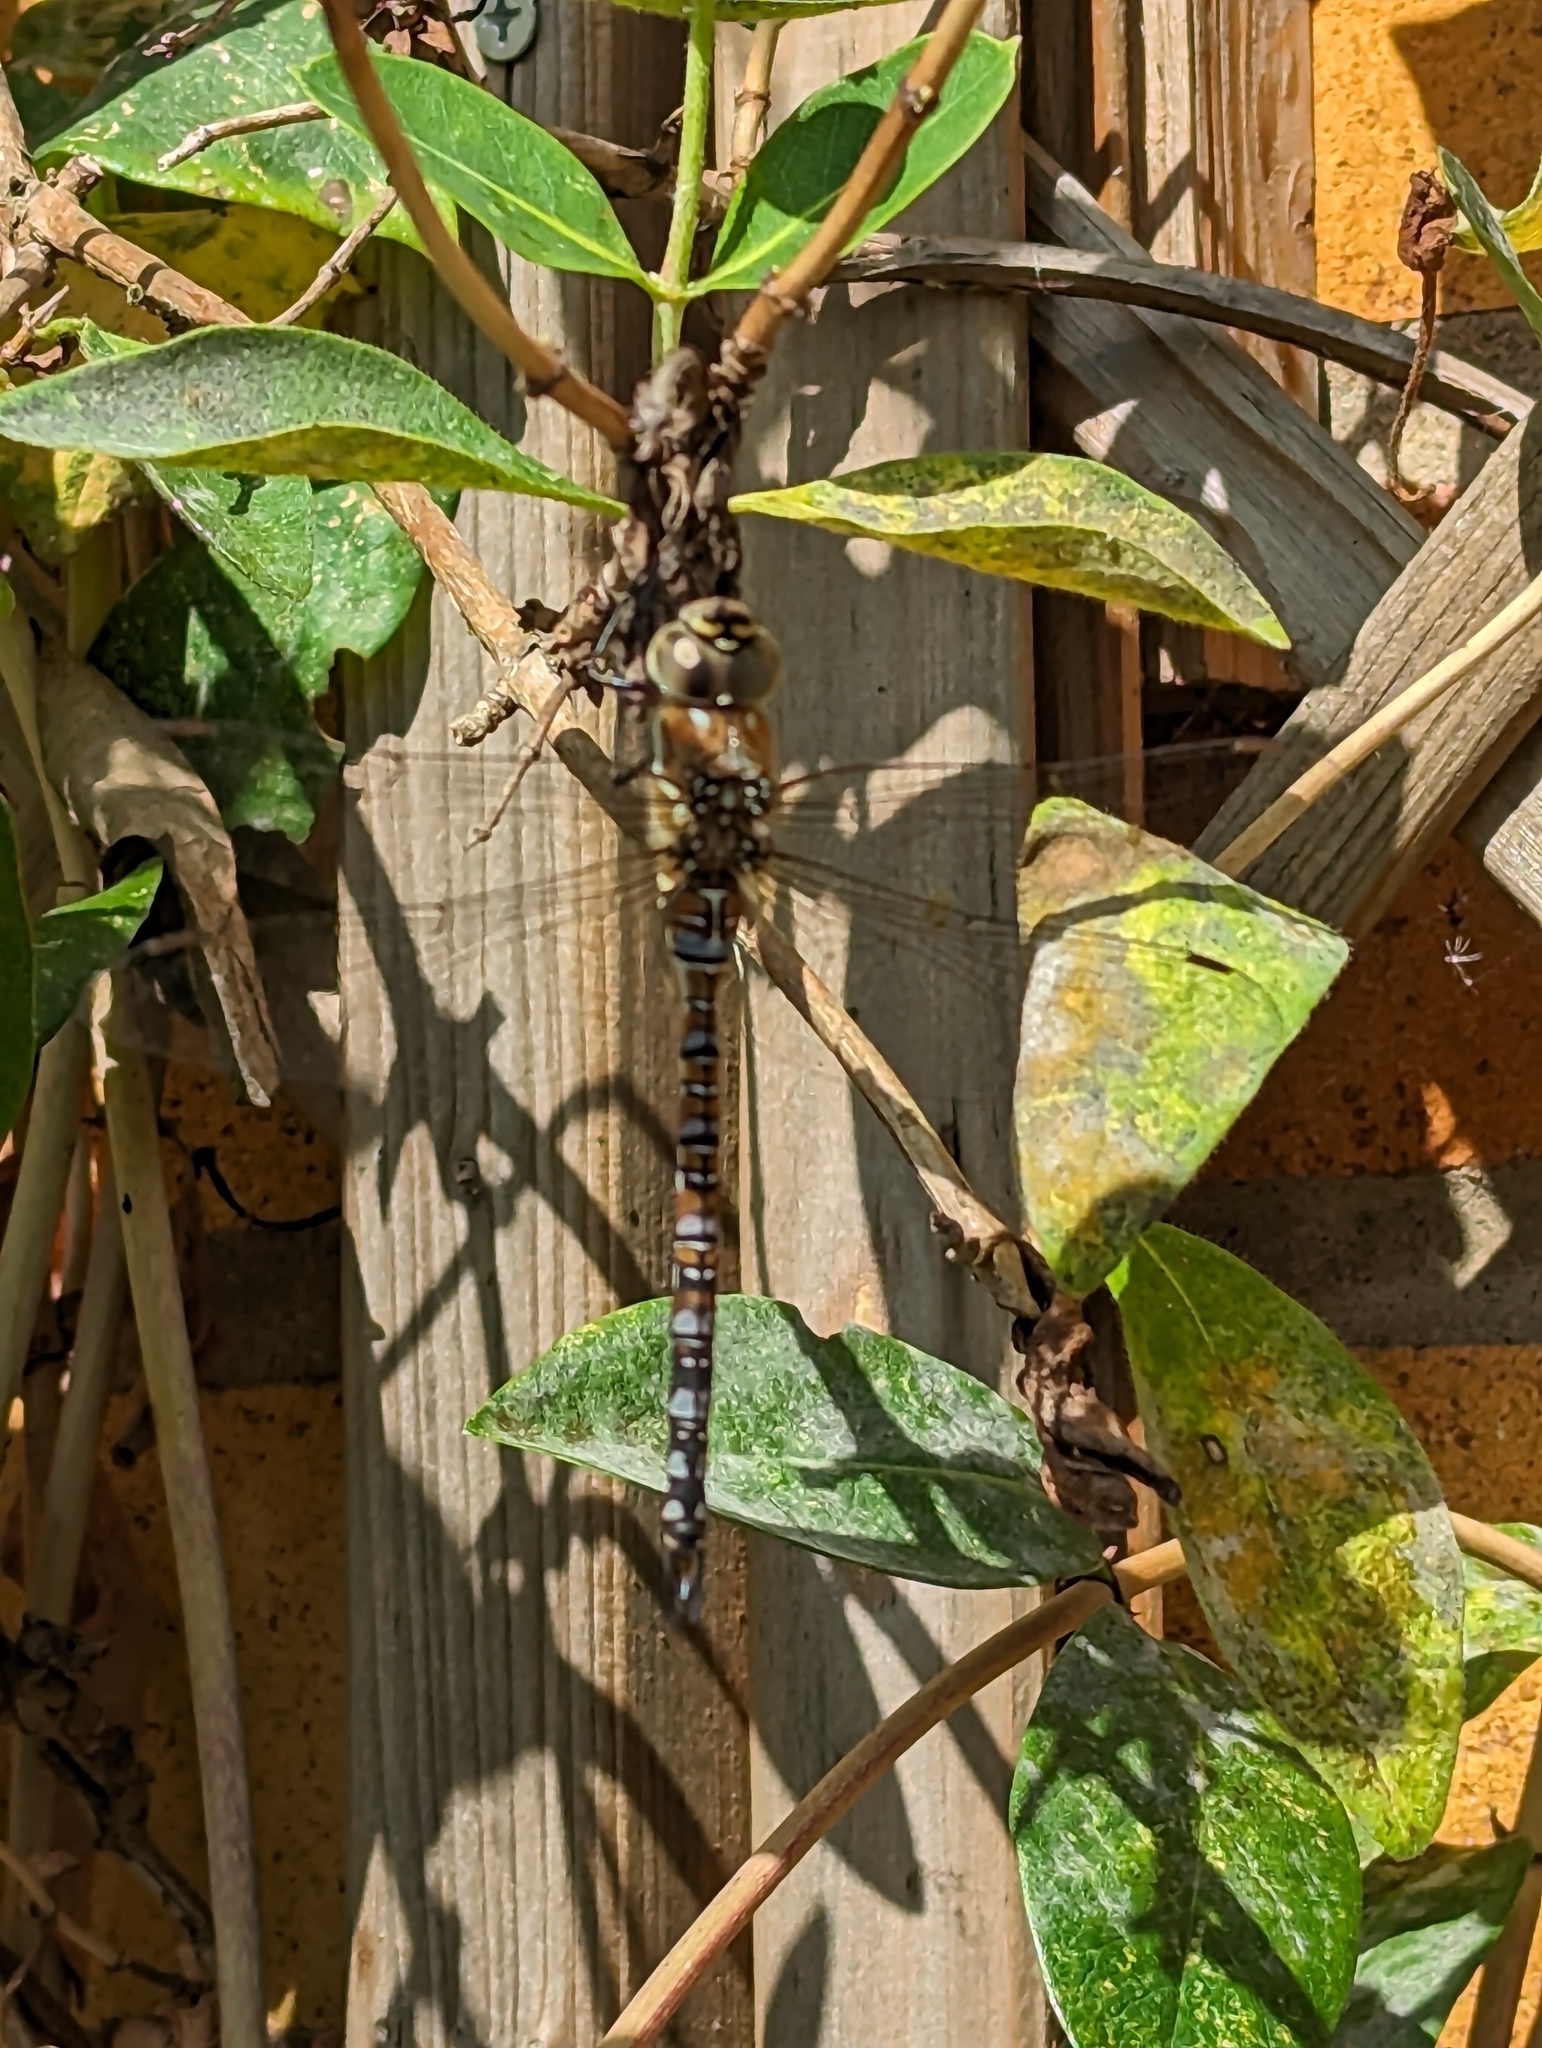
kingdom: Animalia
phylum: Arthropoda
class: Insecta
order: Odonata
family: Aeshnidae
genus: Aeshna
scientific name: Aeshna mixta
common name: Migrant hawker
